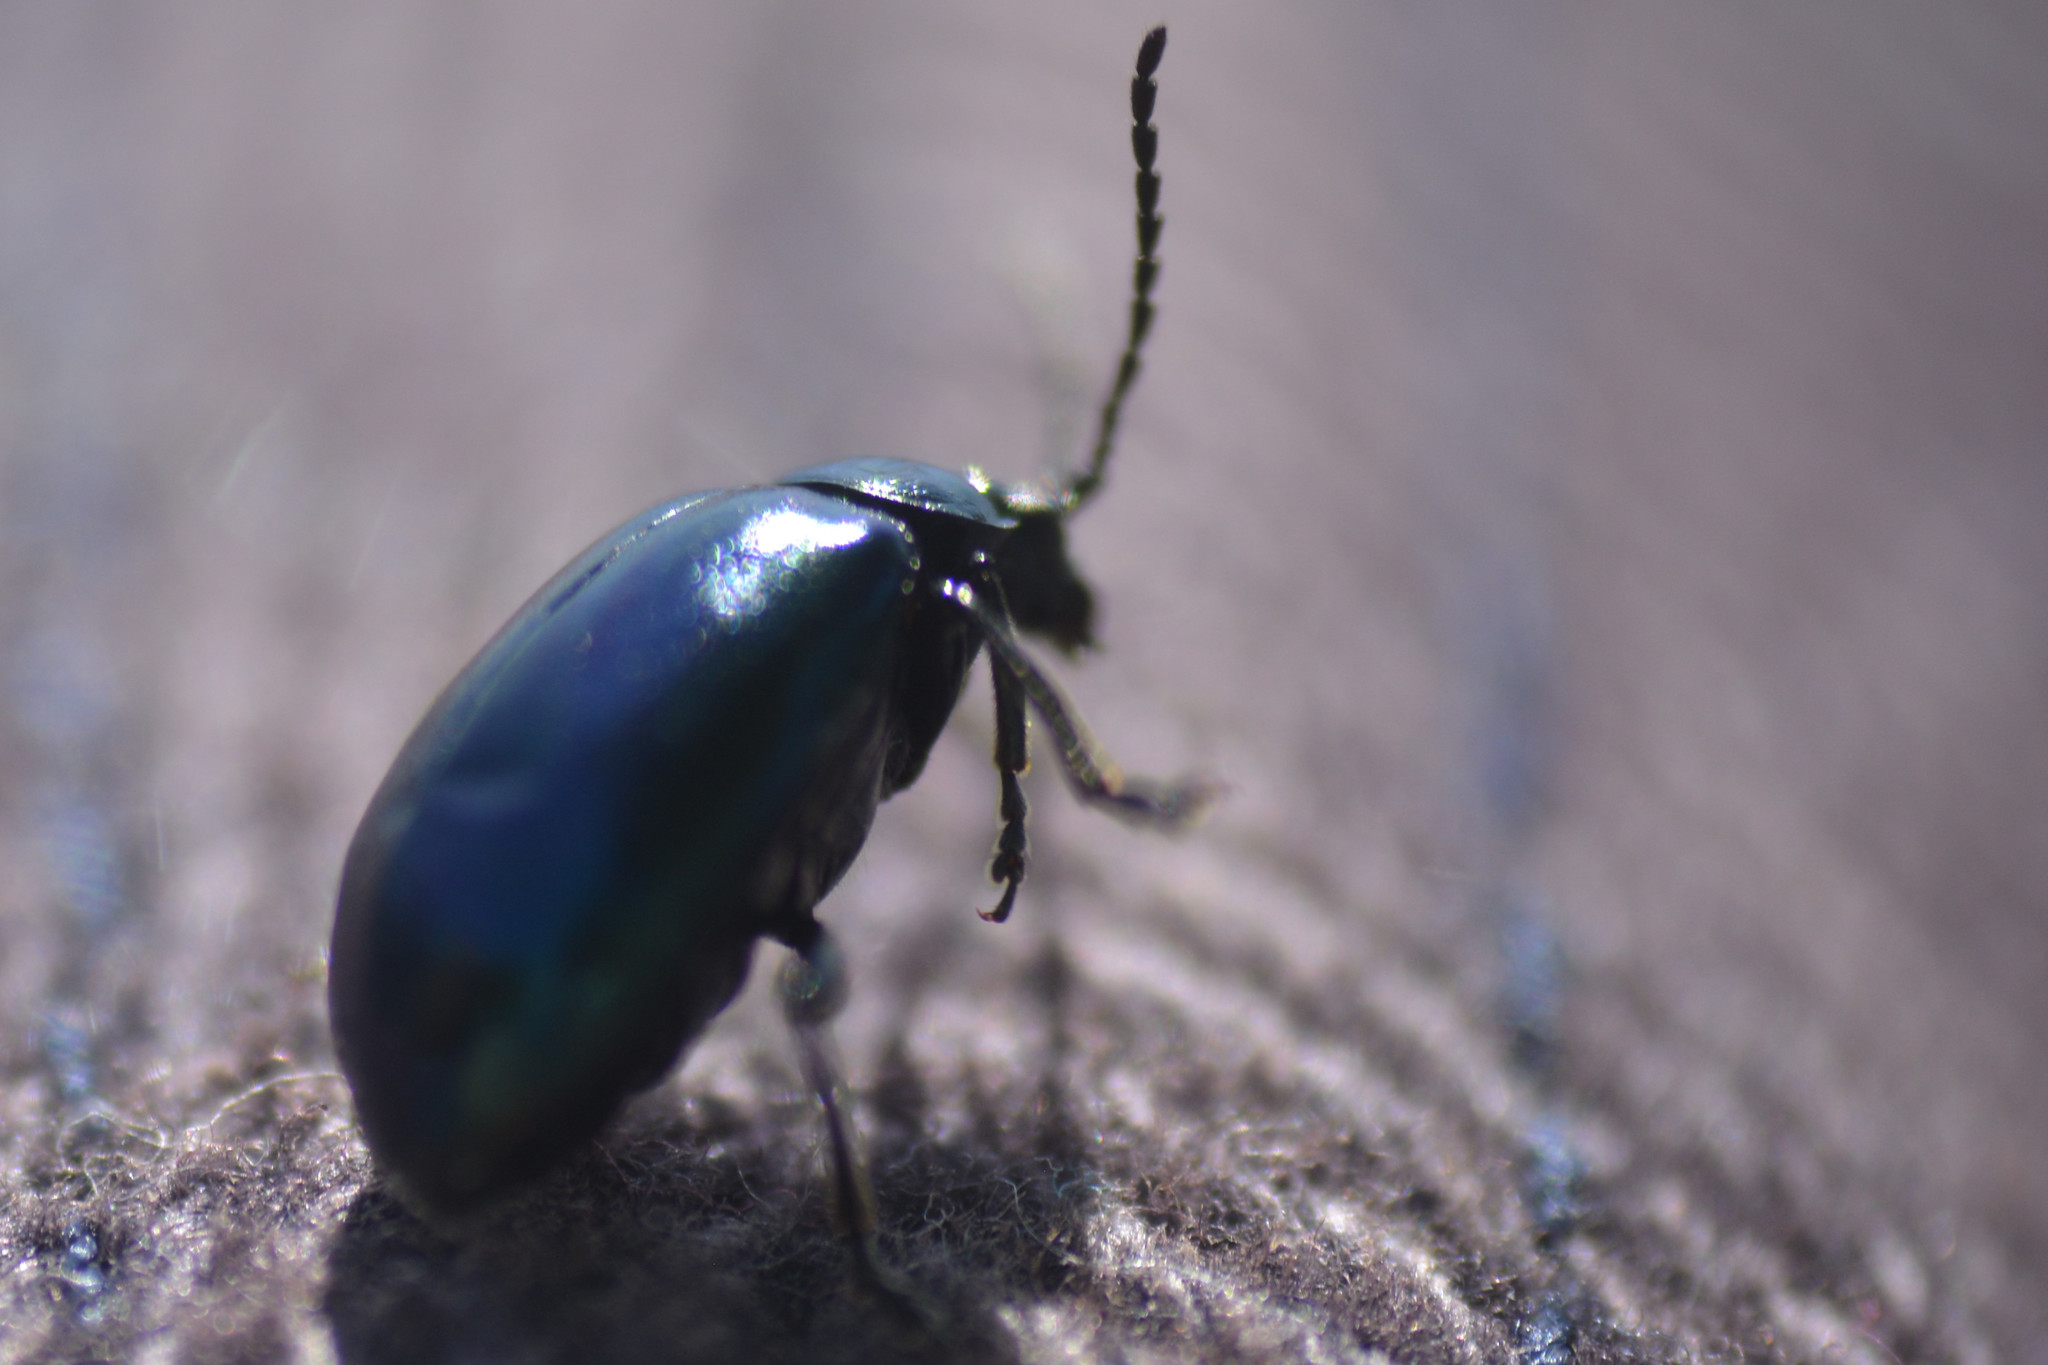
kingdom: Animalia
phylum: Arthropoda
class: Insecta
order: Coleoptera
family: Chrysomelidae
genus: Agelastica
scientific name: Agelastica alni
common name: Alder leaf beetle
